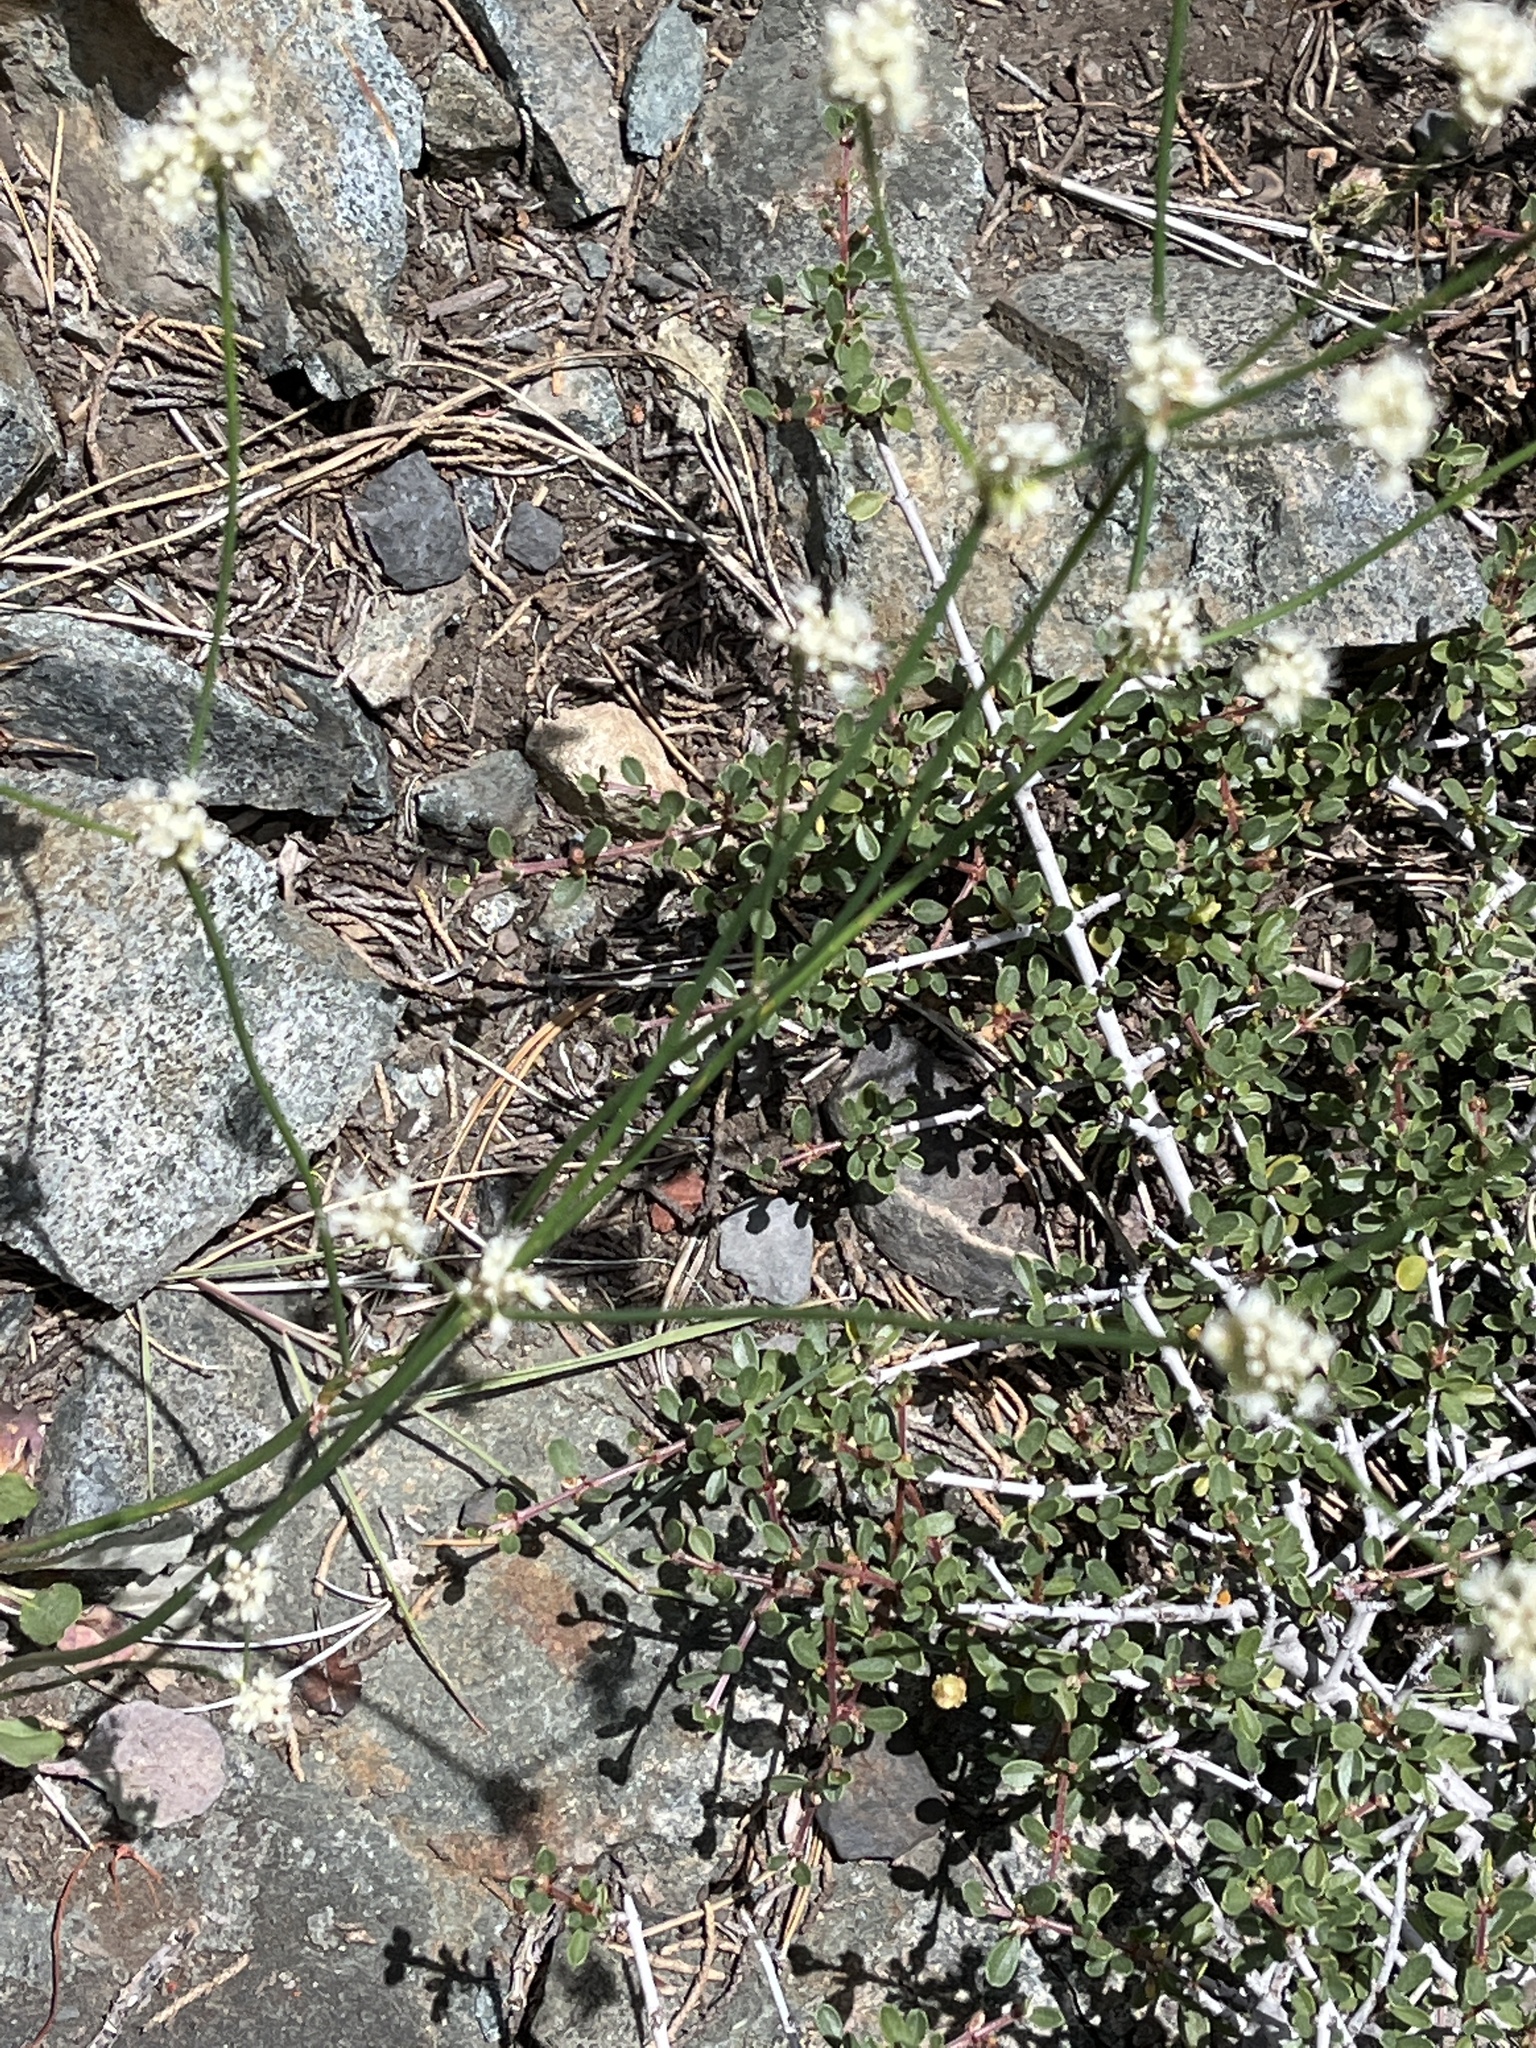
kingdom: Plantae
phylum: Tracheophyta
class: Magnoliopsida
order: Caryophyllales
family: Polygonaceae
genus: Eriogonum
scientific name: Eriogonum nudum
